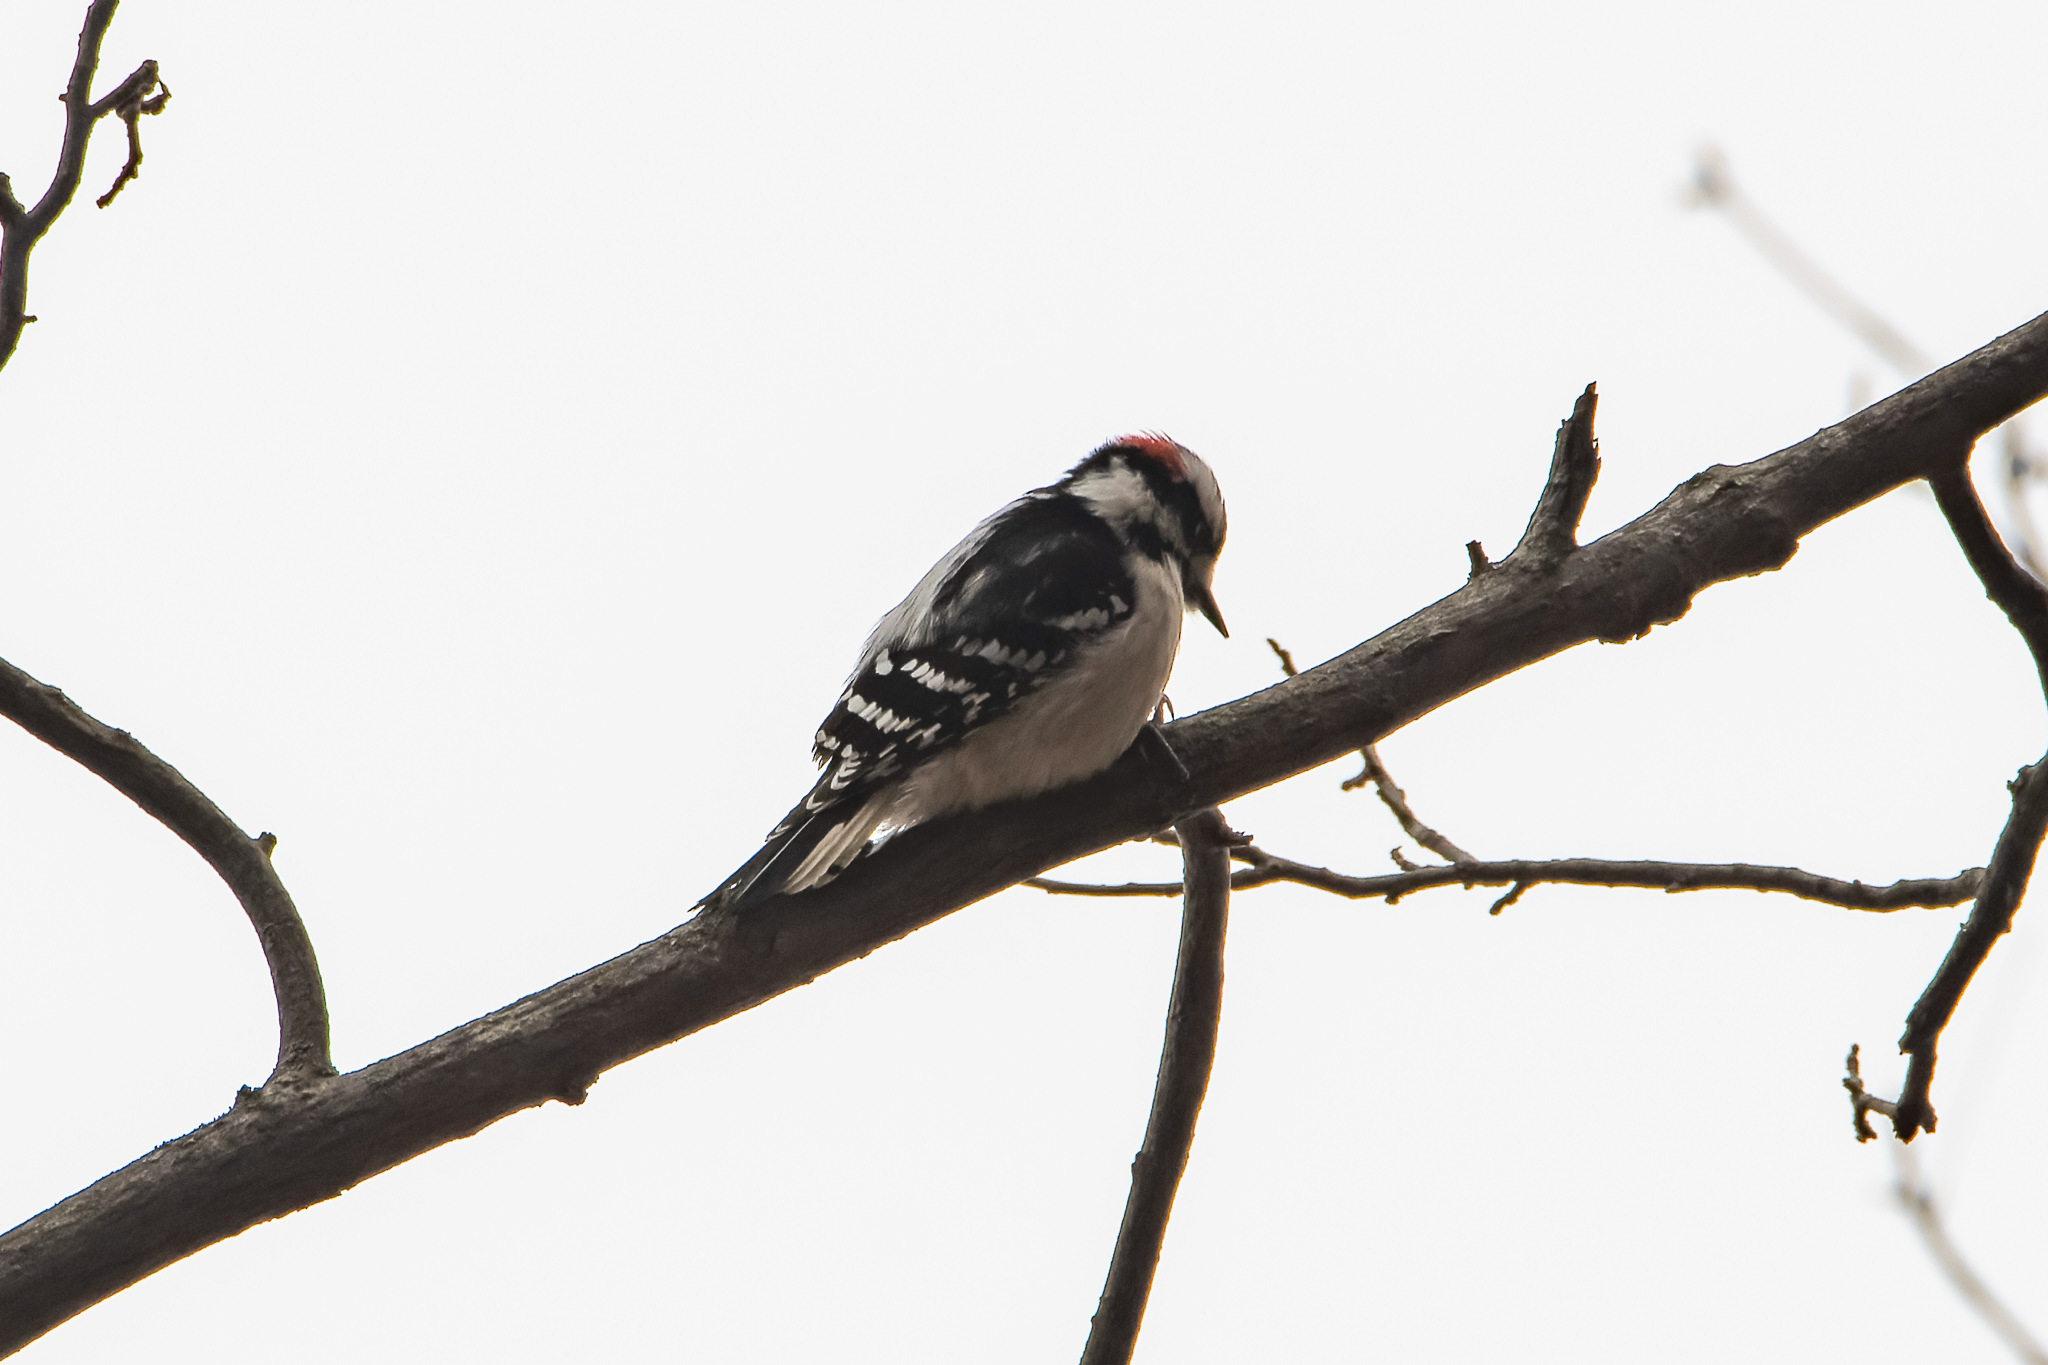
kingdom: Animalia
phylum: Chordata
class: Aves
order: Piciformes
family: Picidae
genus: Dryobates
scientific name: Dryobates pubescens
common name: Downy woodpecker
